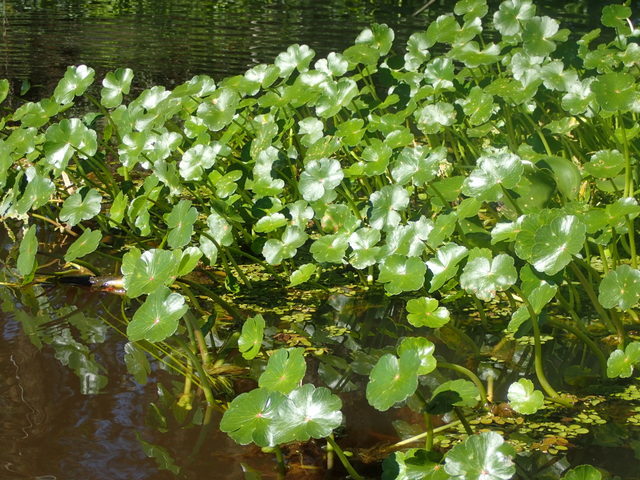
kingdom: Plantae
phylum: Tracheophyta
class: Magnoliopsida
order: Apiales
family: Araliaceae
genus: Hydrocotyle
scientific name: Hydrocotyle ranunculoides
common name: Floating pennywort
